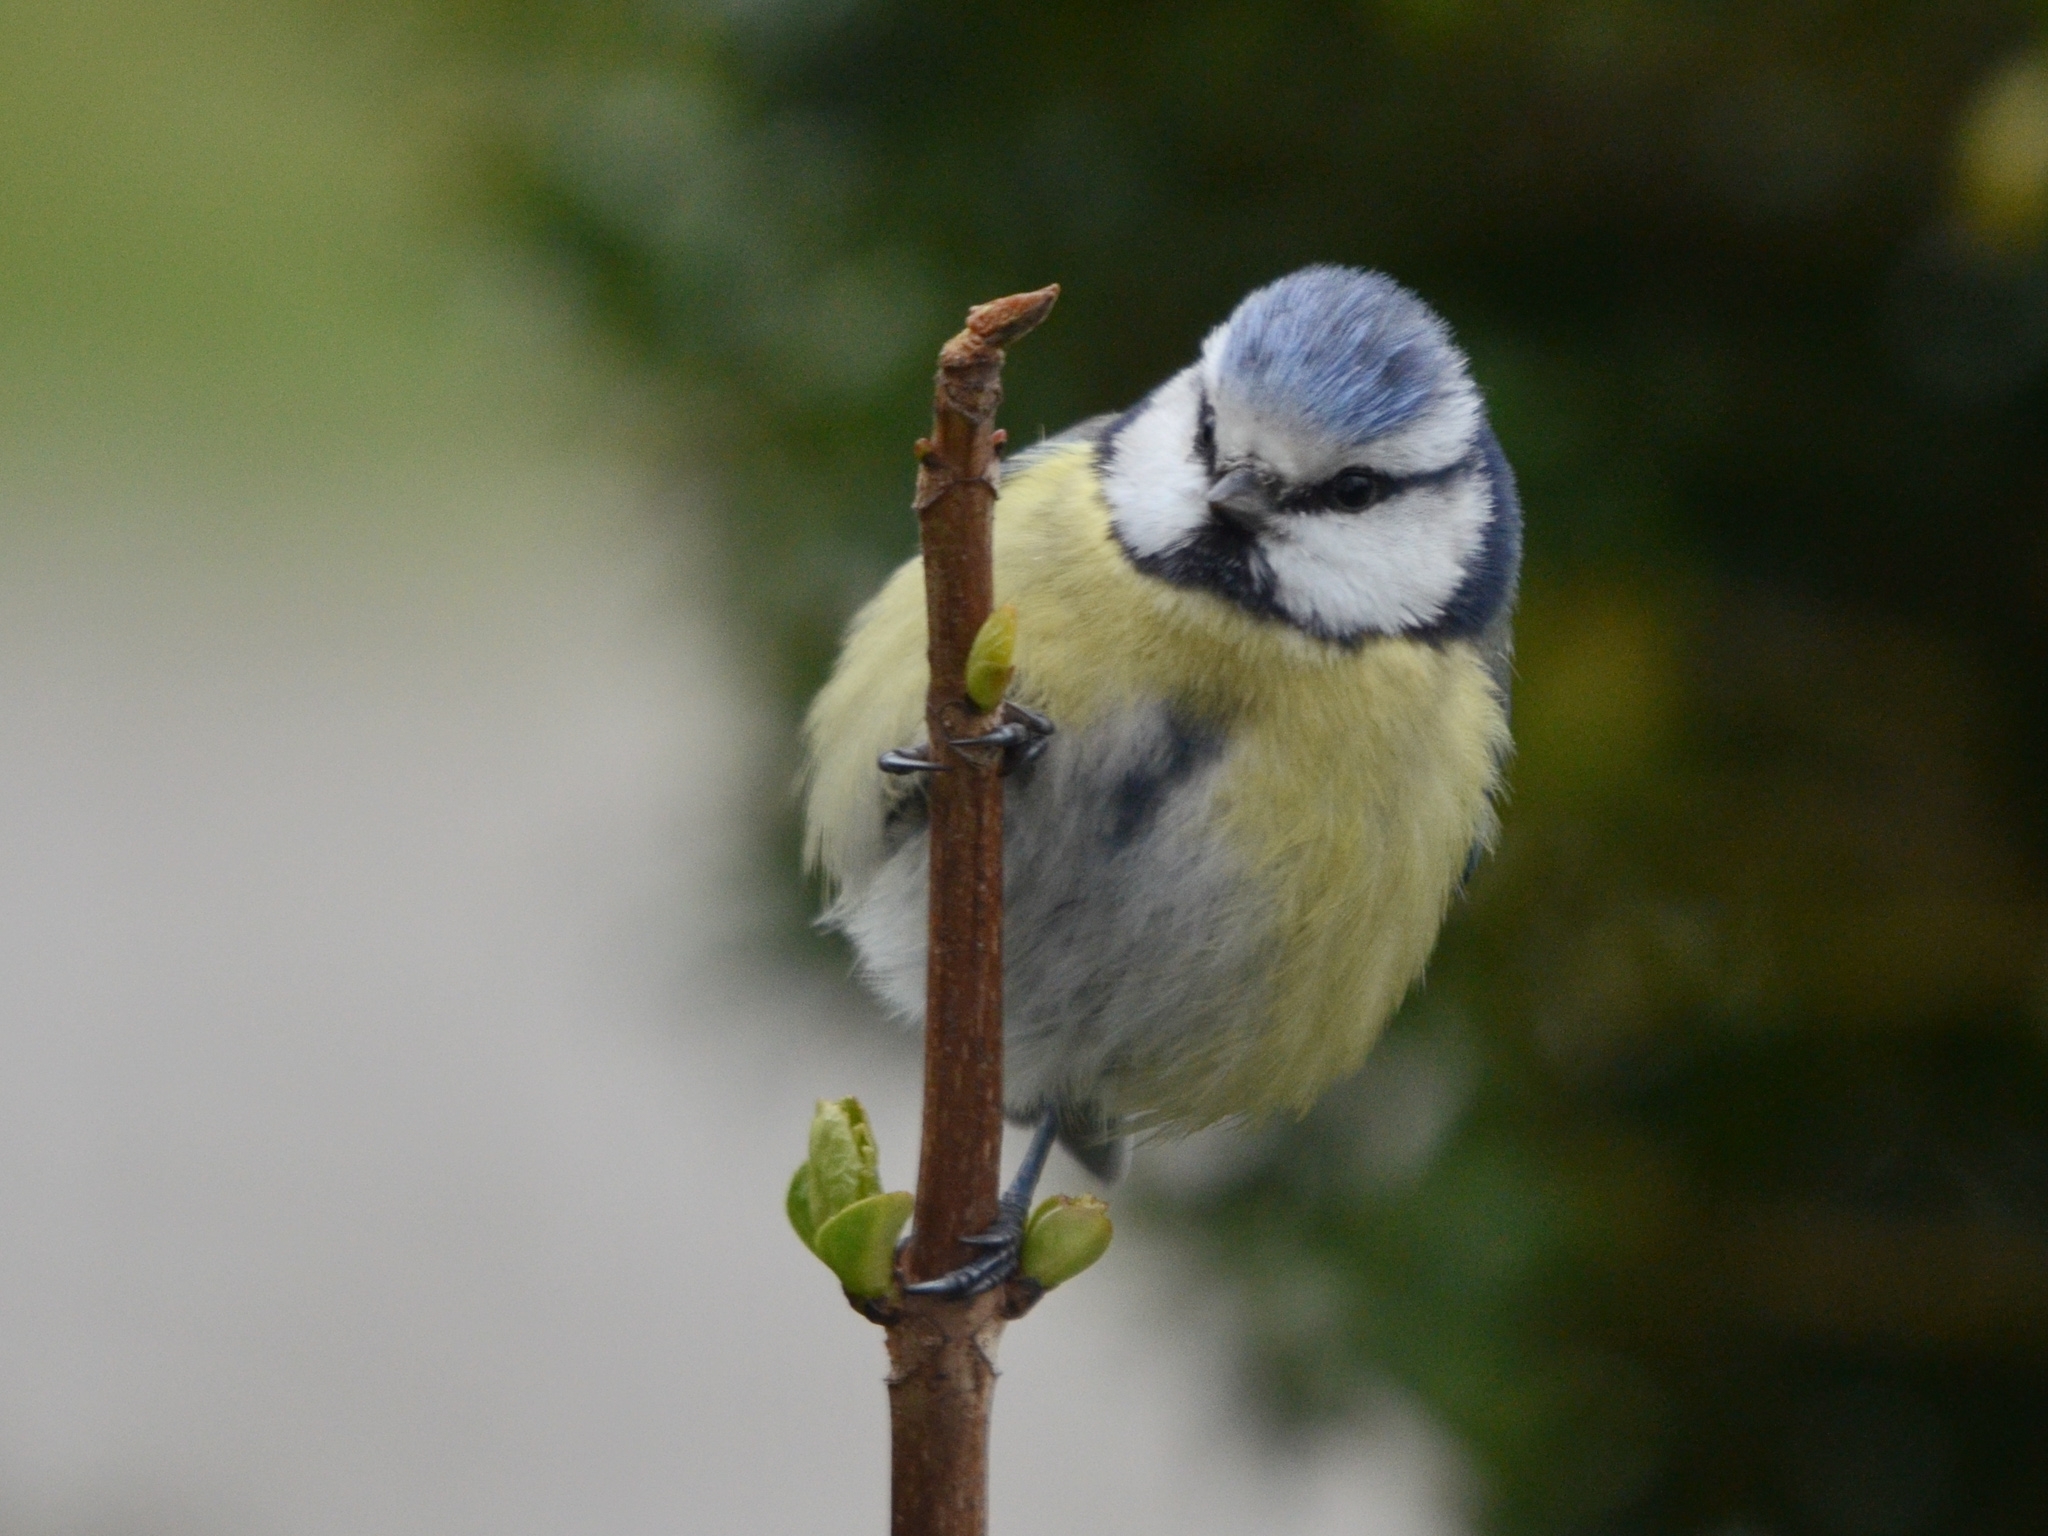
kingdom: Animalia
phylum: Chordata
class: Aves
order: Passeriformes
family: Paridae
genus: Cyanistes
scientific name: Cyanistes caeruleus
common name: Eurasian blue tit
